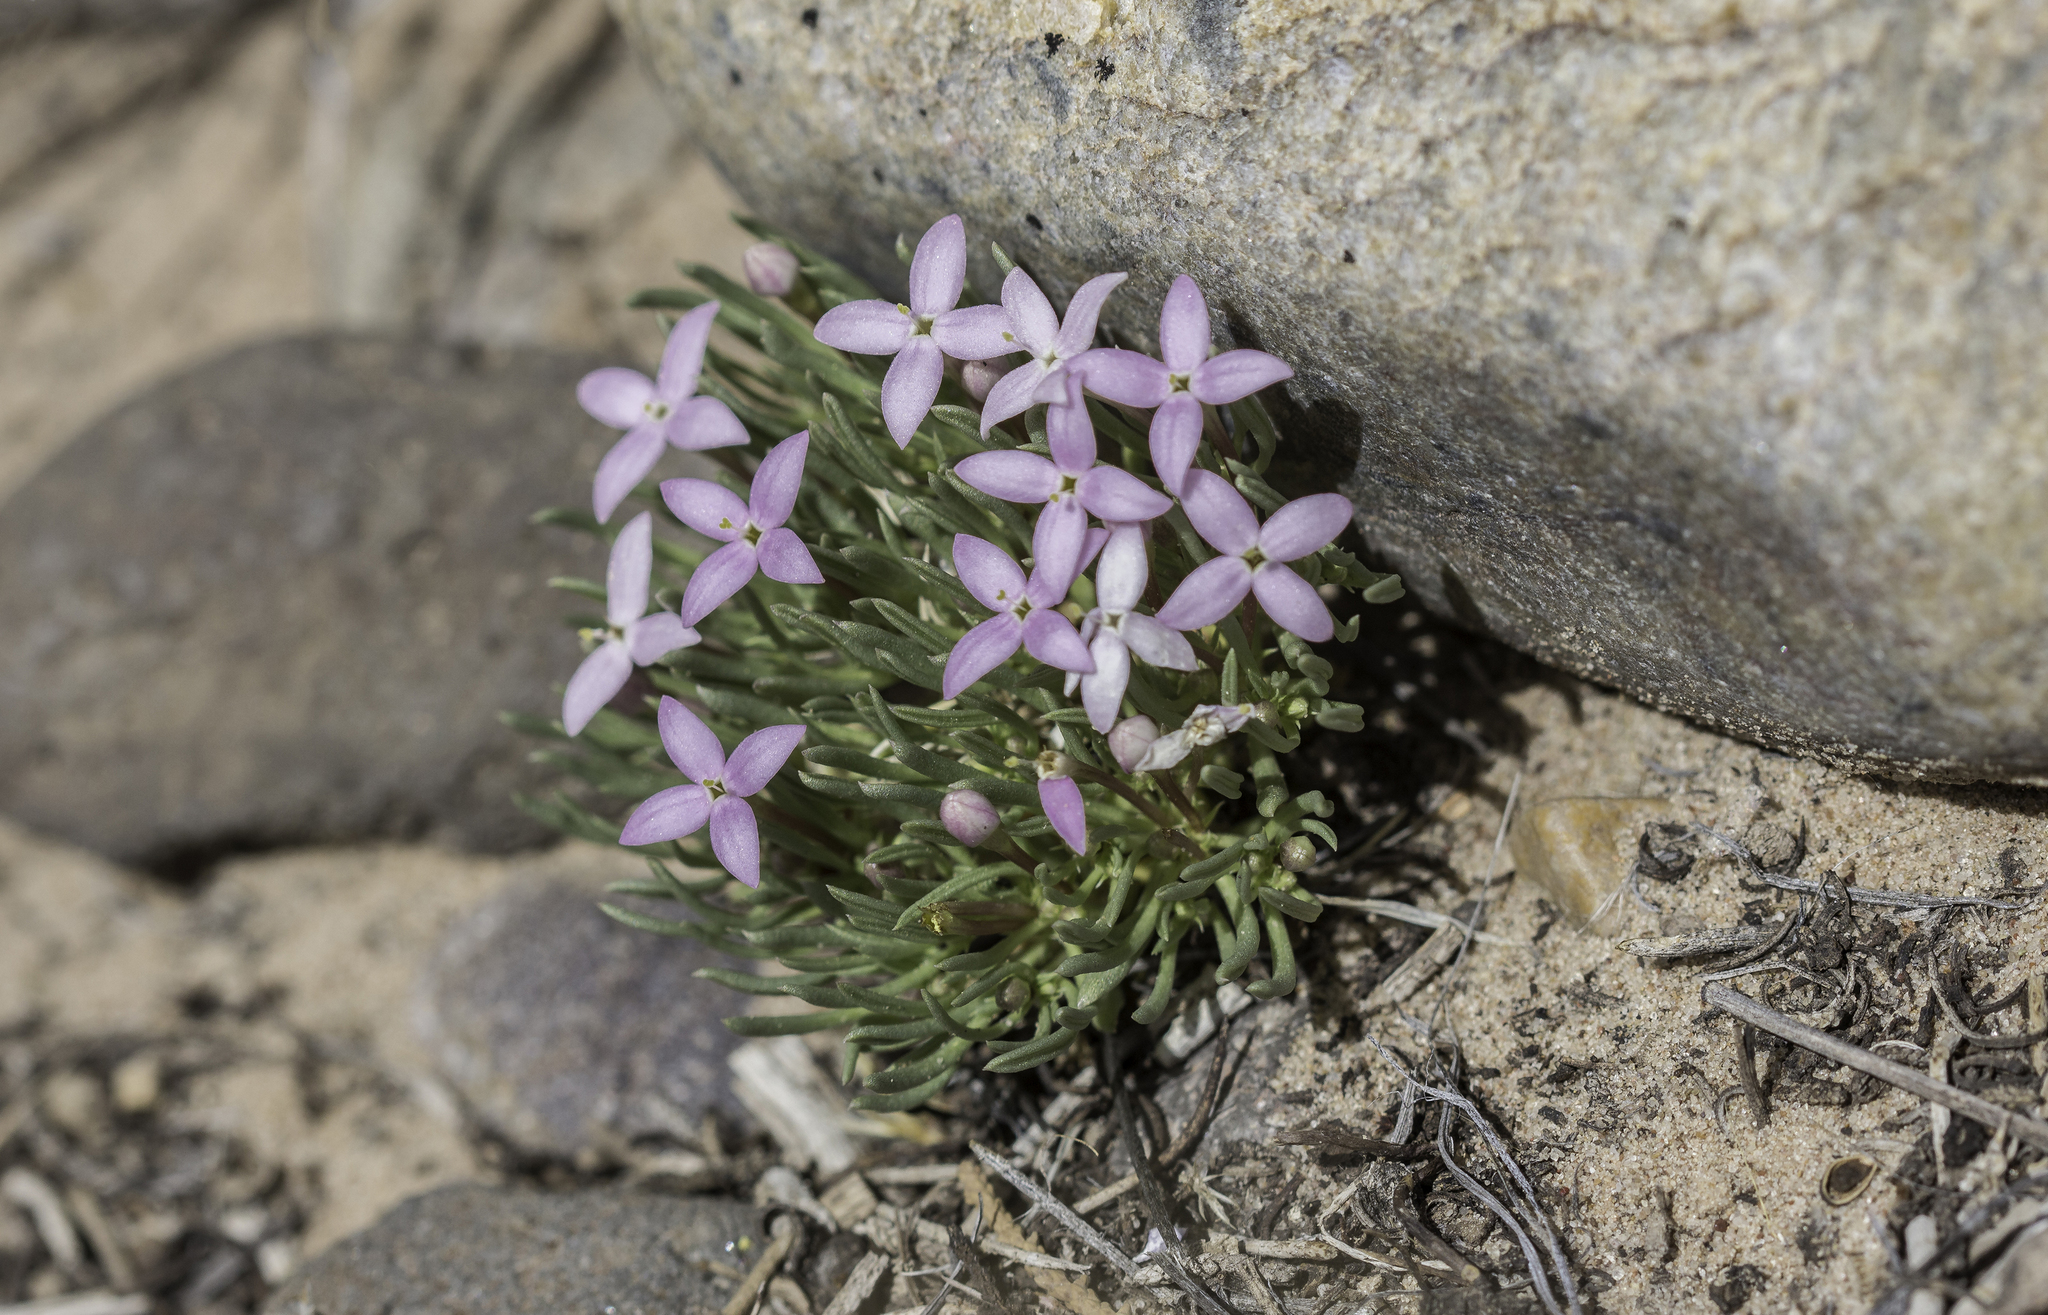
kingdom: Plantae
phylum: Tracheophyta
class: Magnoliopsida
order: Gentianales
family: Rubiaceae
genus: Houstonia
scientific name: Houstonia rubra
